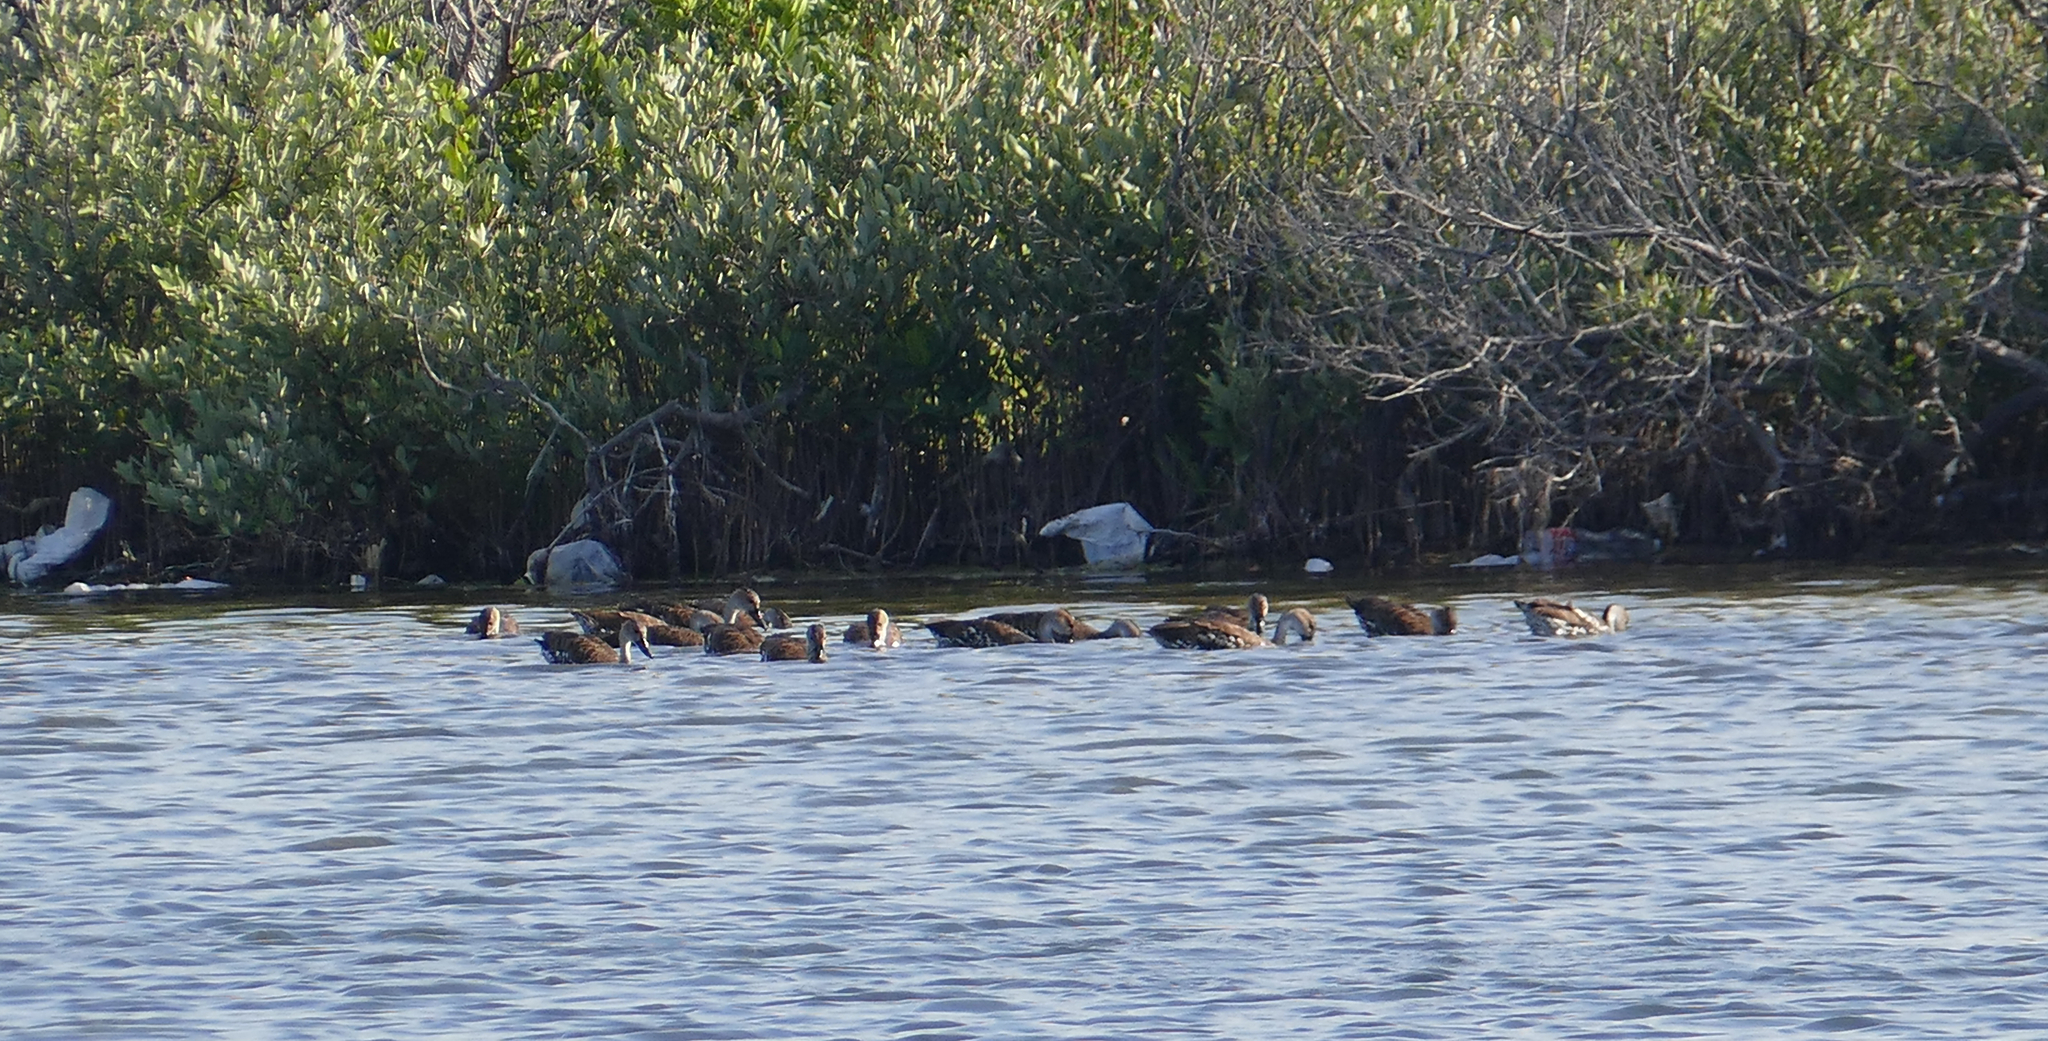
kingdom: Animalia
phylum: Chordata
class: Aves
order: Anseriformes
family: Anatidae
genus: Dendrocygna
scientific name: Dendrocygna arborea
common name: West indian whistling duck
